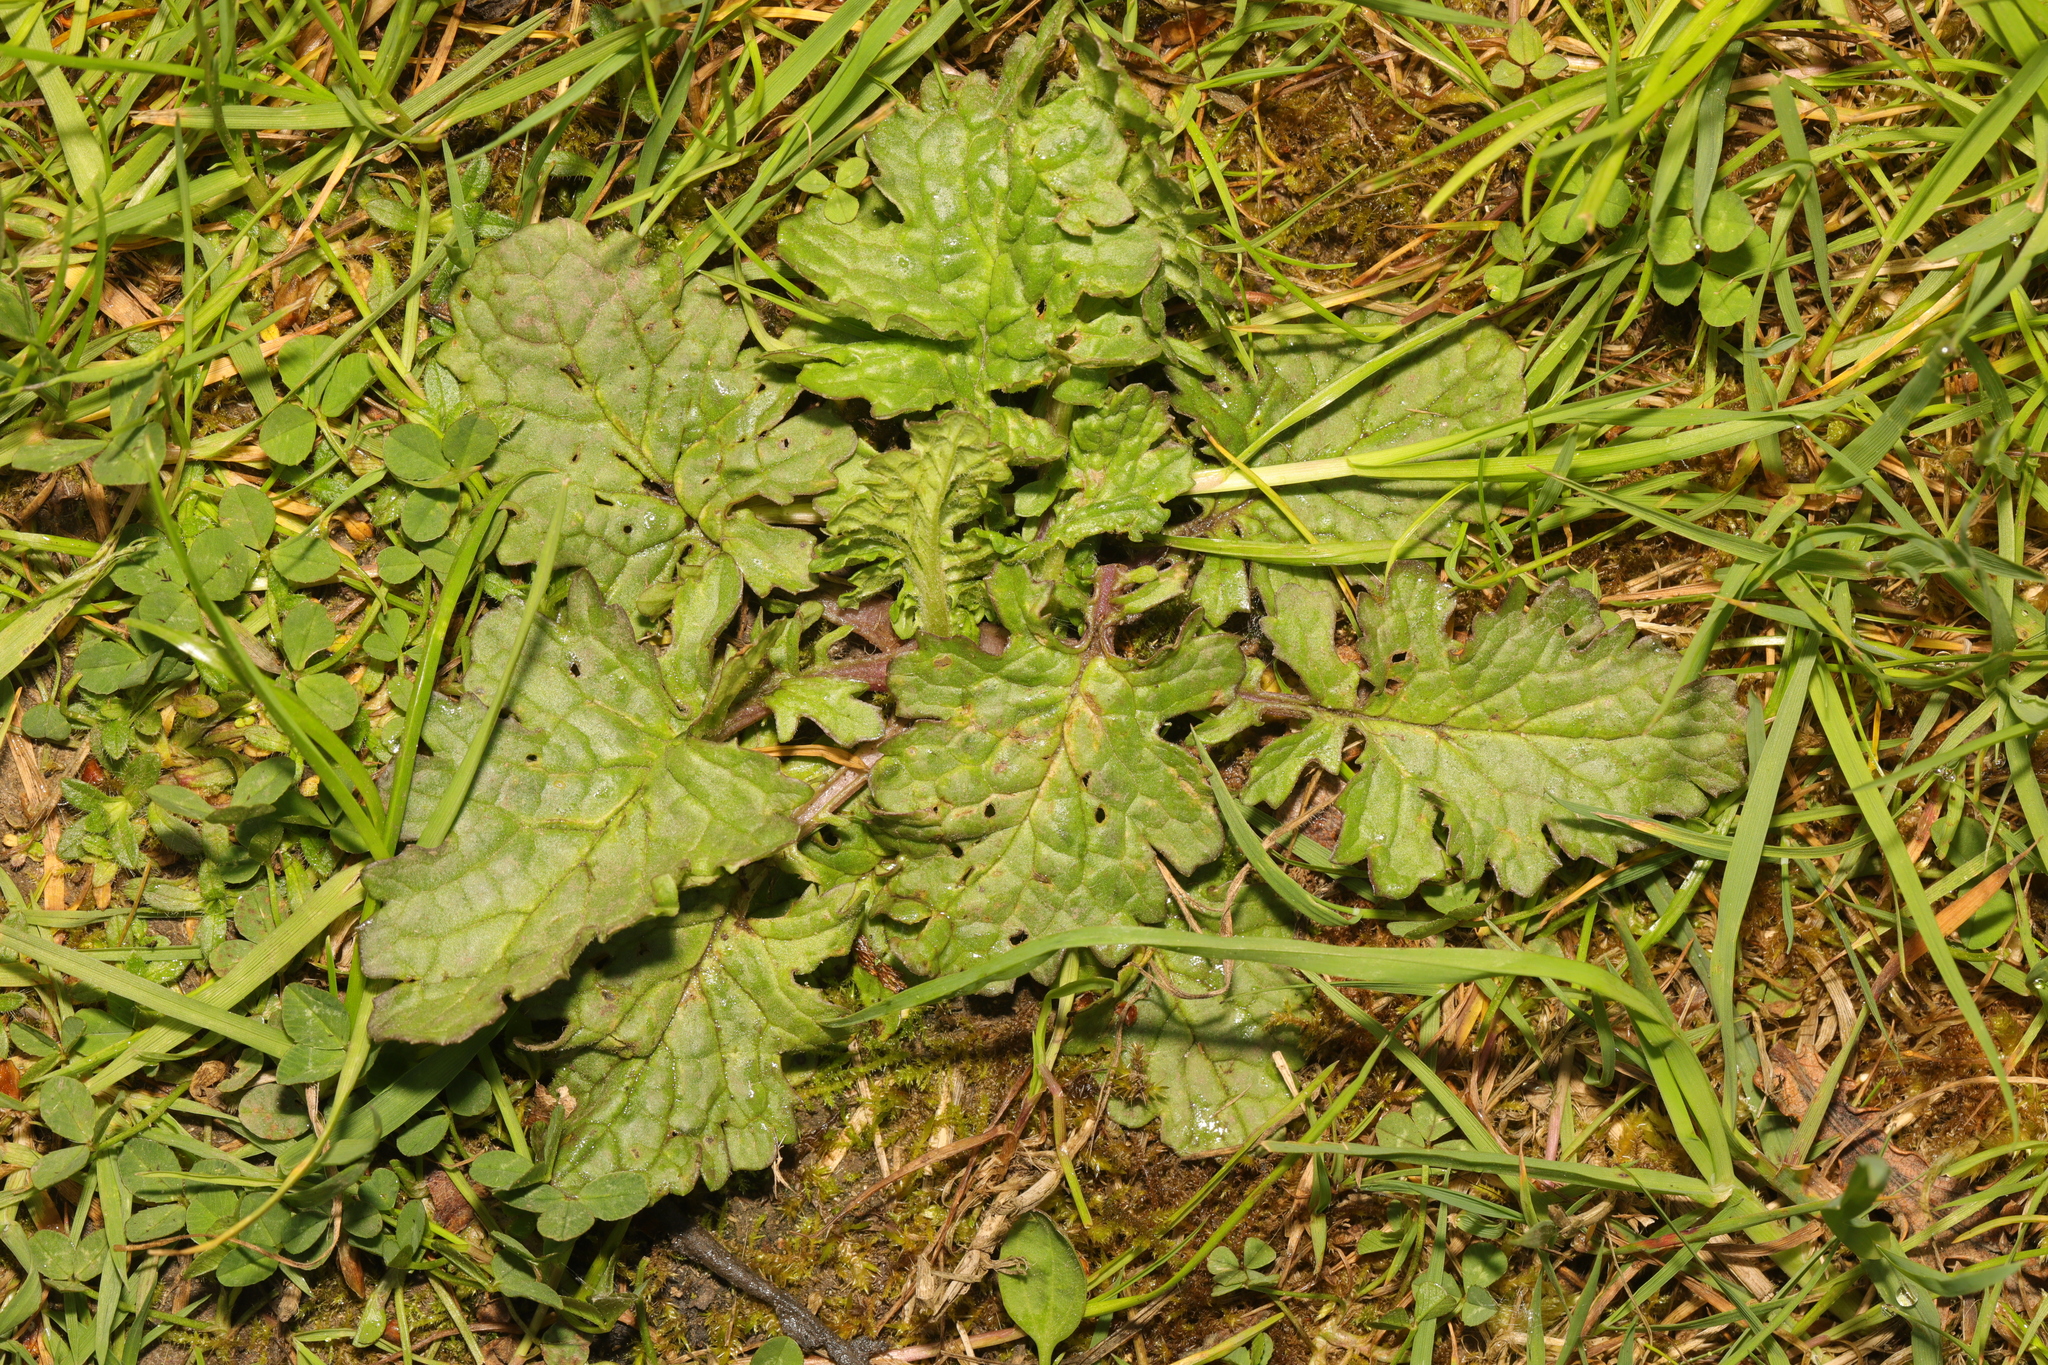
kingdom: Plantae
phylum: Tracheophyta
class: Magnoliopsida
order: Asterales
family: Asteraceae
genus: Jacobaea
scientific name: Jacobaea vulgaris
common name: Stinking willie
